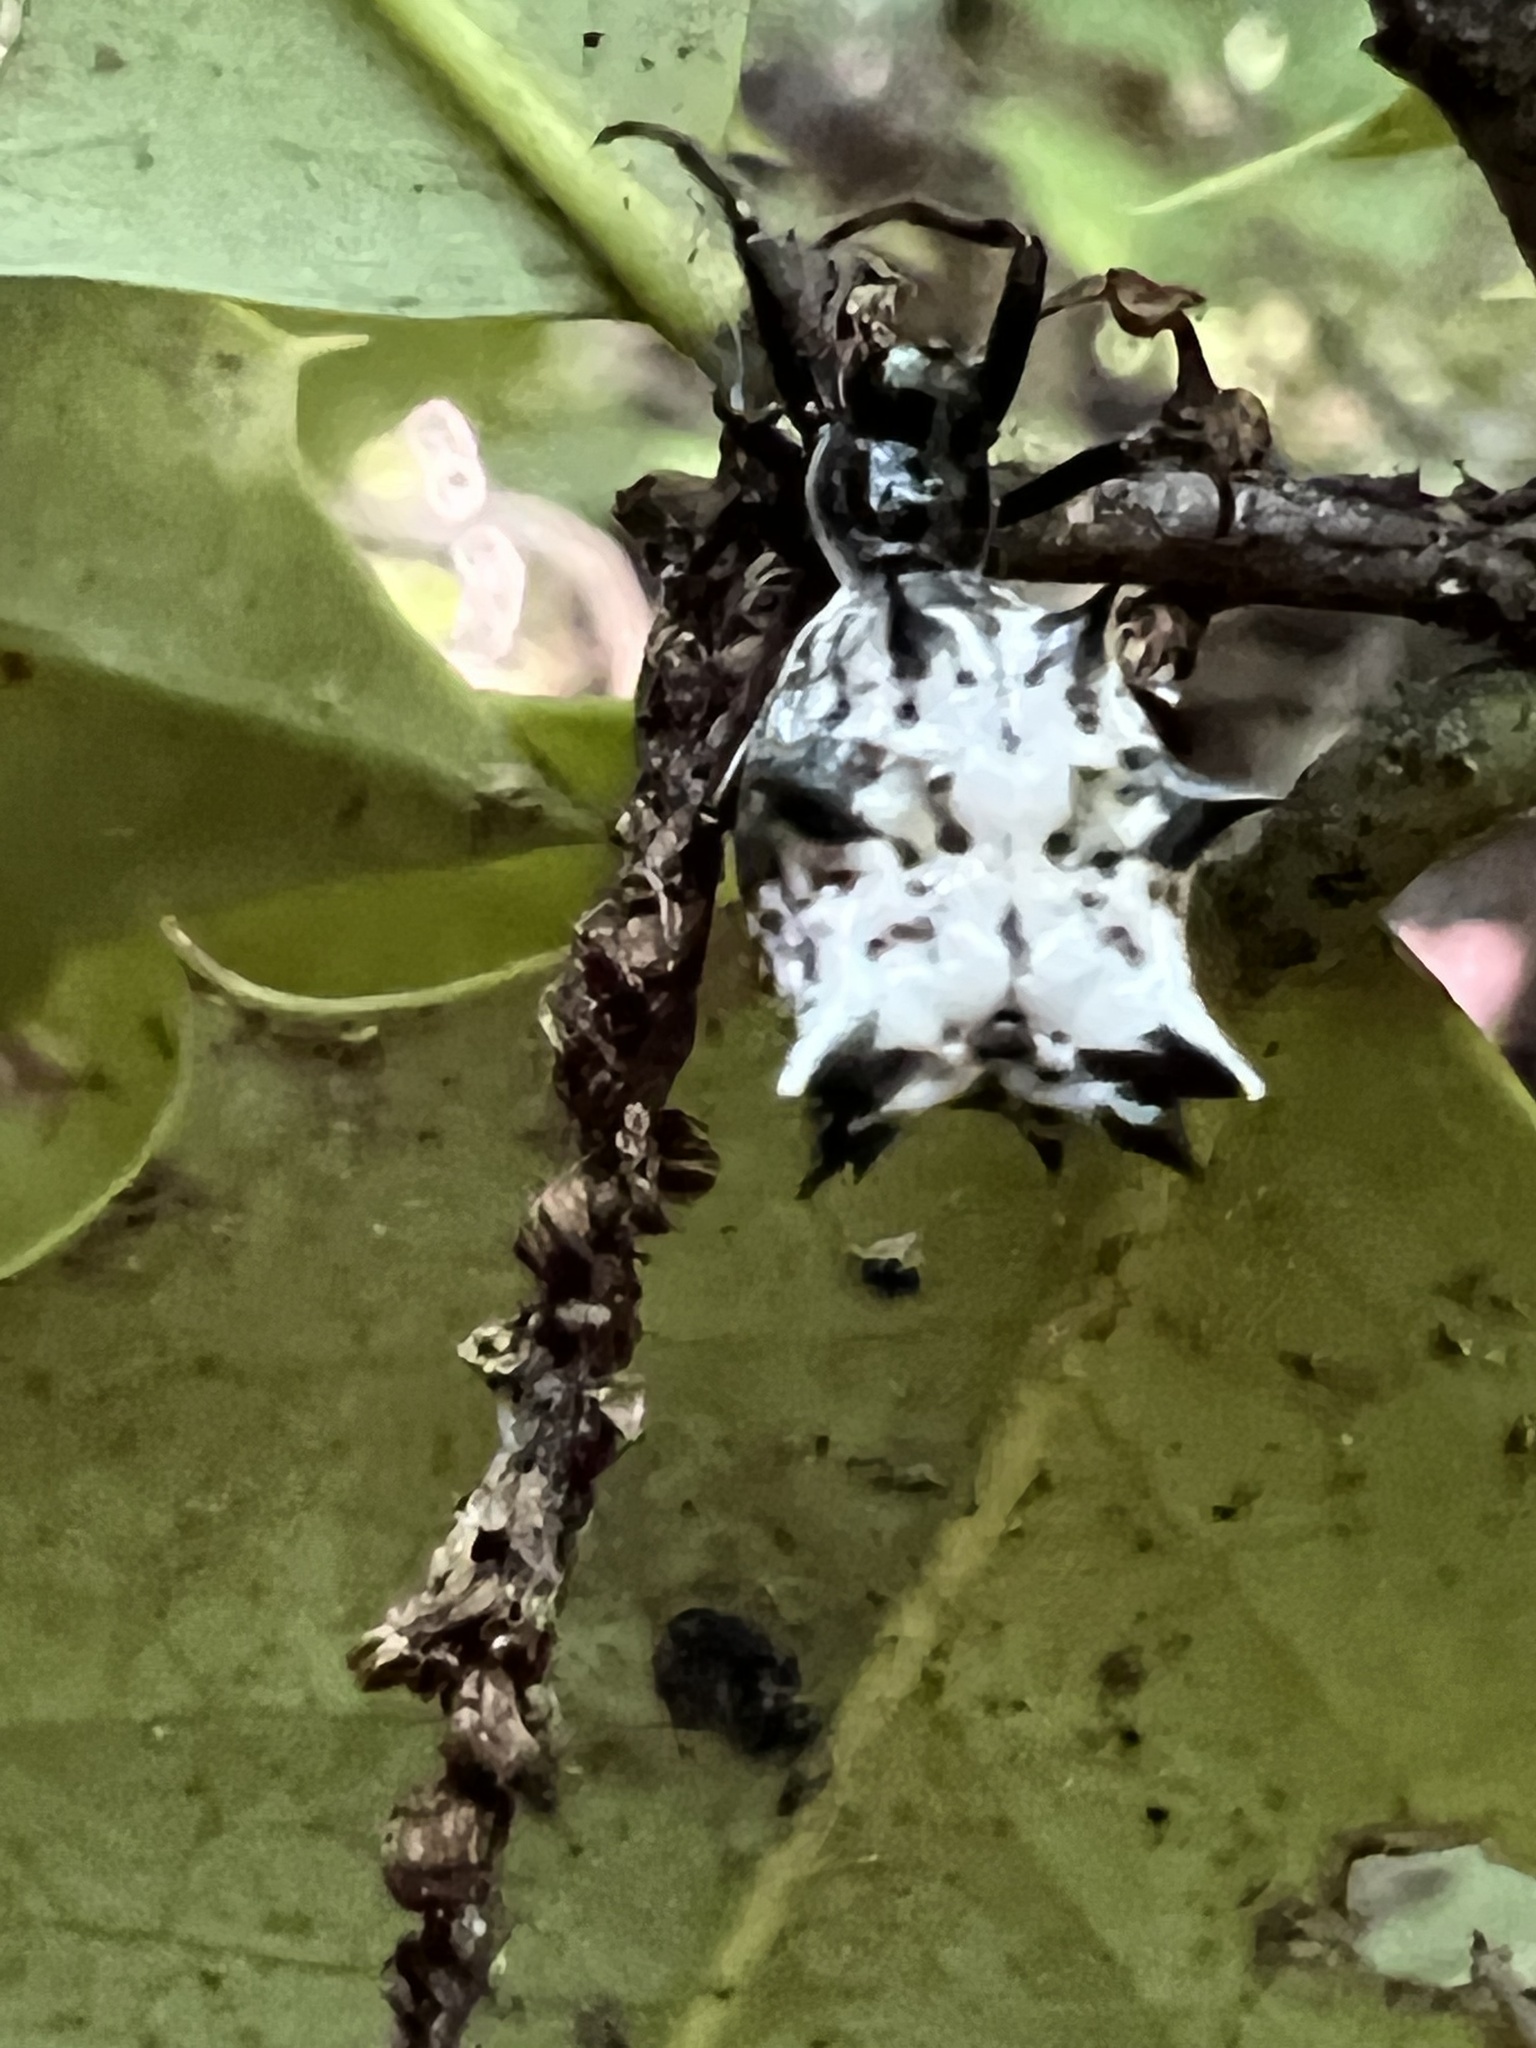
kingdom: Animalia
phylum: Arthropoda
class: Arachnida
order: Araneae
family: Araneidae
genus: Micrathena
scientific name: Micrathena gracilis
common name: Orb weavers
